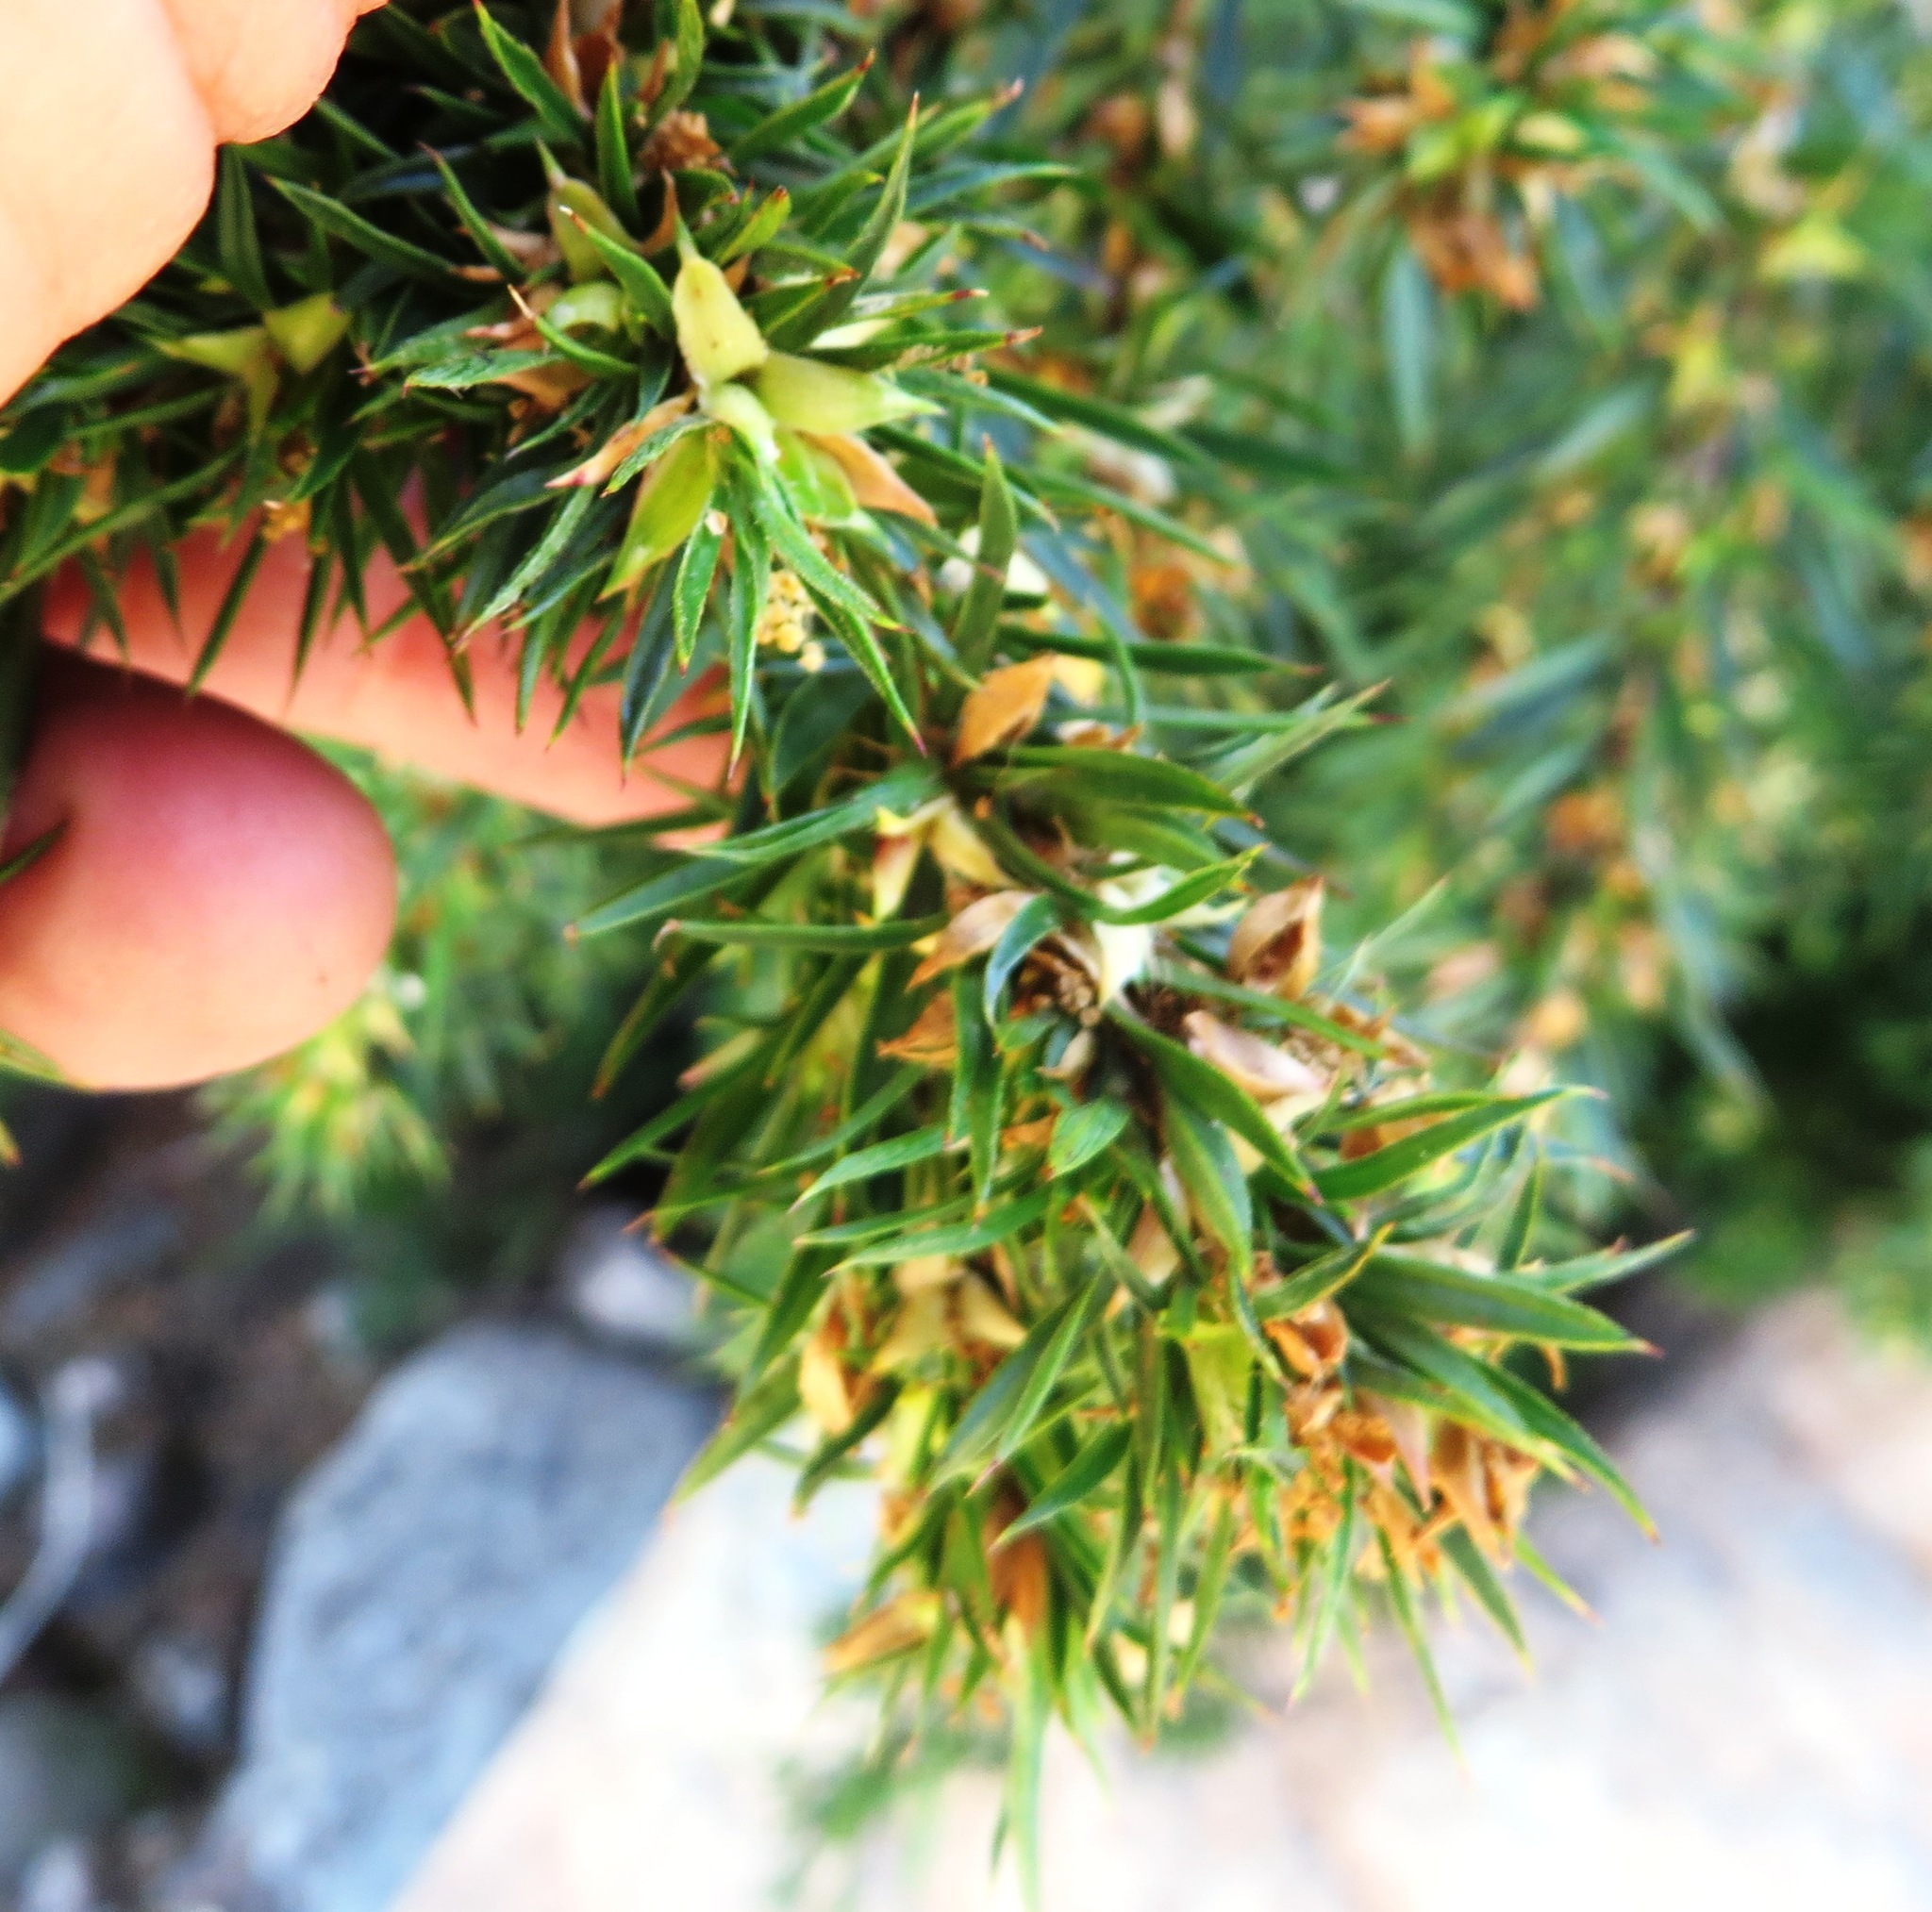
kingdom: Plantae
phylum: Tracheophyta
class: Magnoliopsida
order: Rosales
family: Rosaceae
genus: Cliffortia
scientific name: Cliffortia strobilifera
